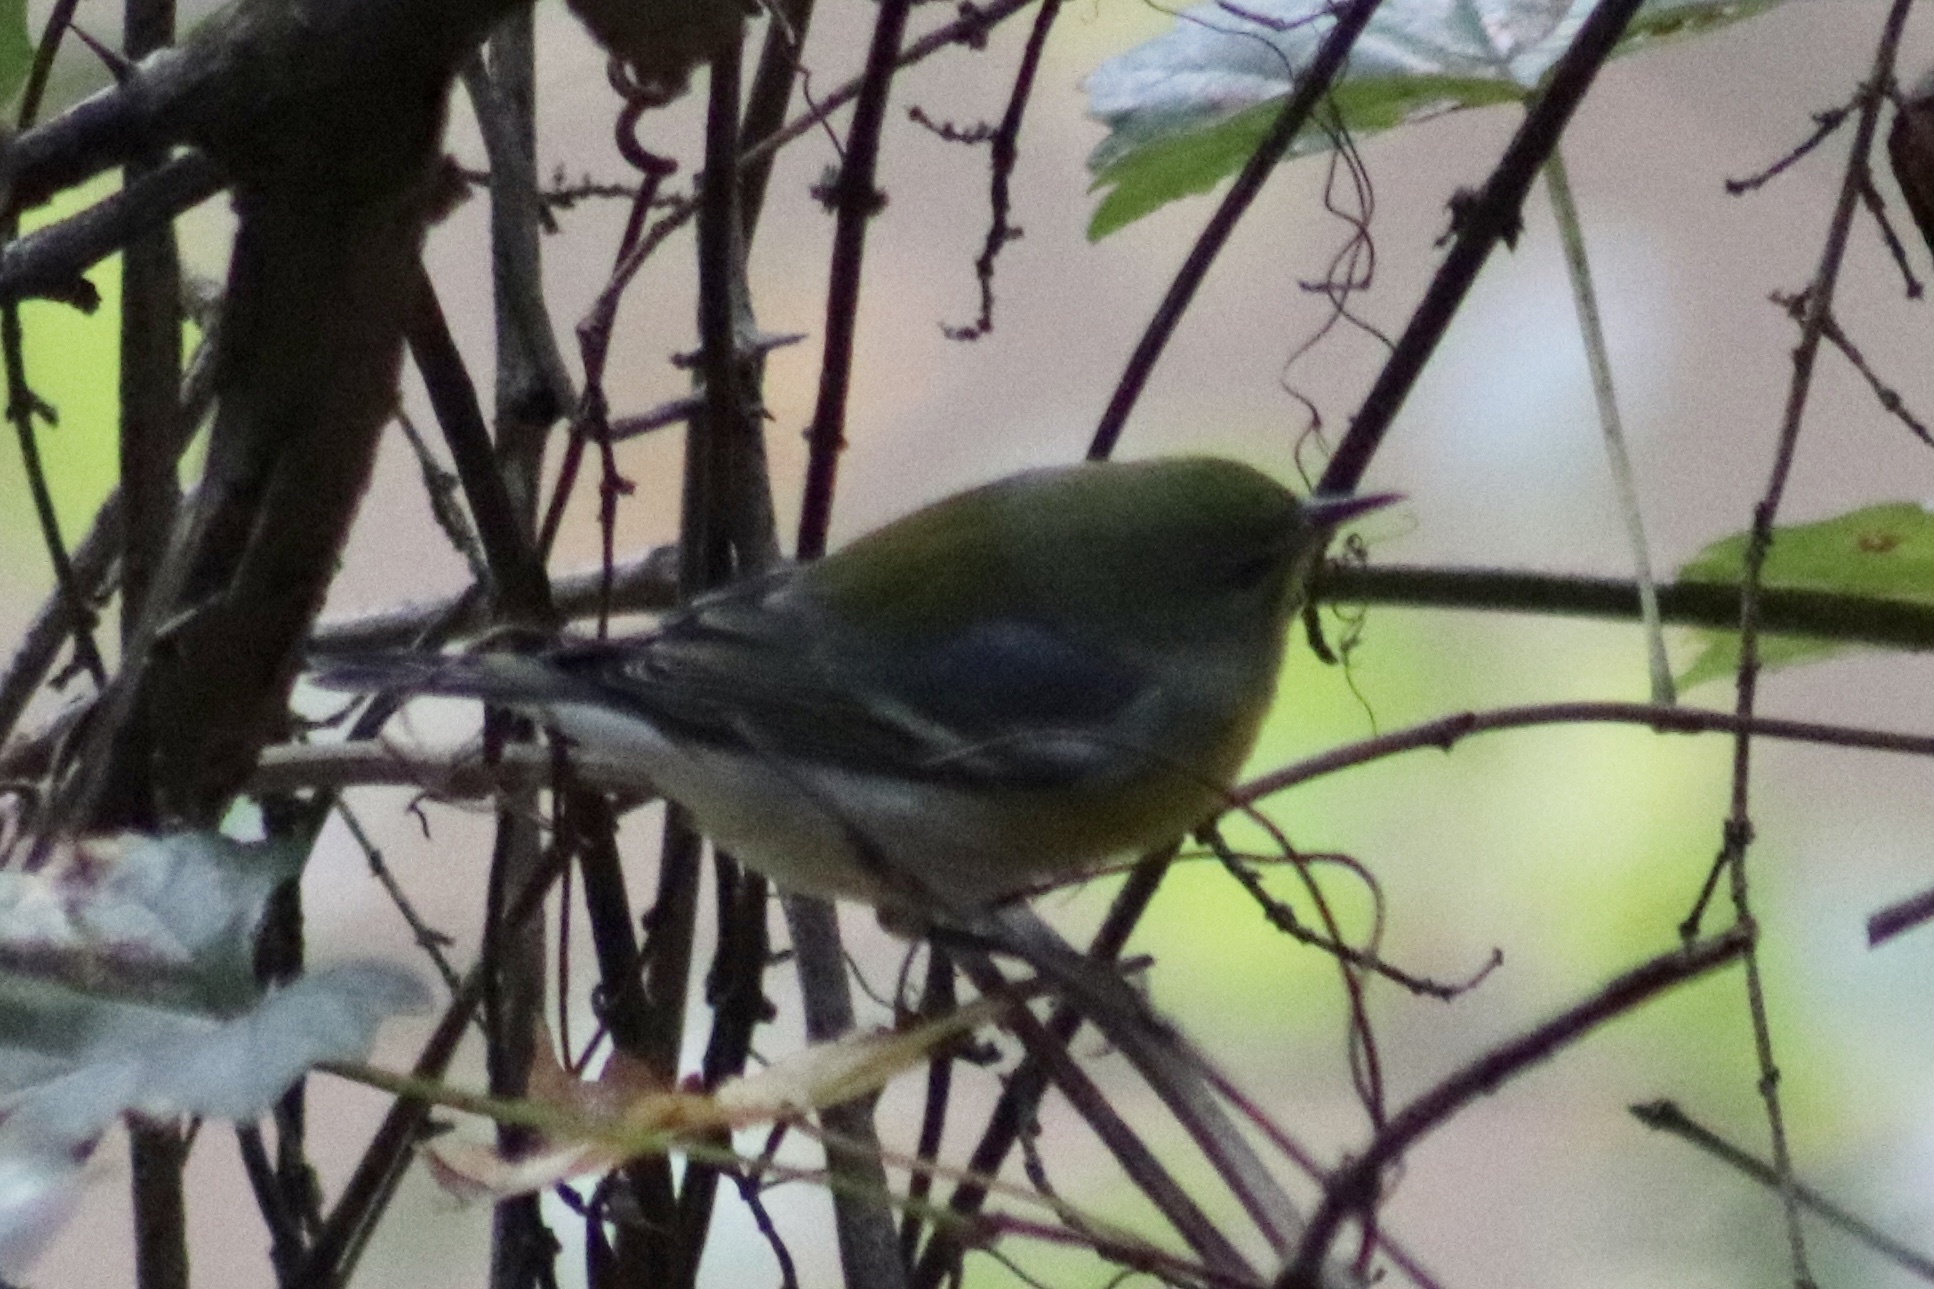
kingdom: Animalia
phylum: Chordata
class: Aves
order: Passeriformes
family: Parulidae
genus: Setophaga
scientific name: Setophaga americana
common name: Northern parula
